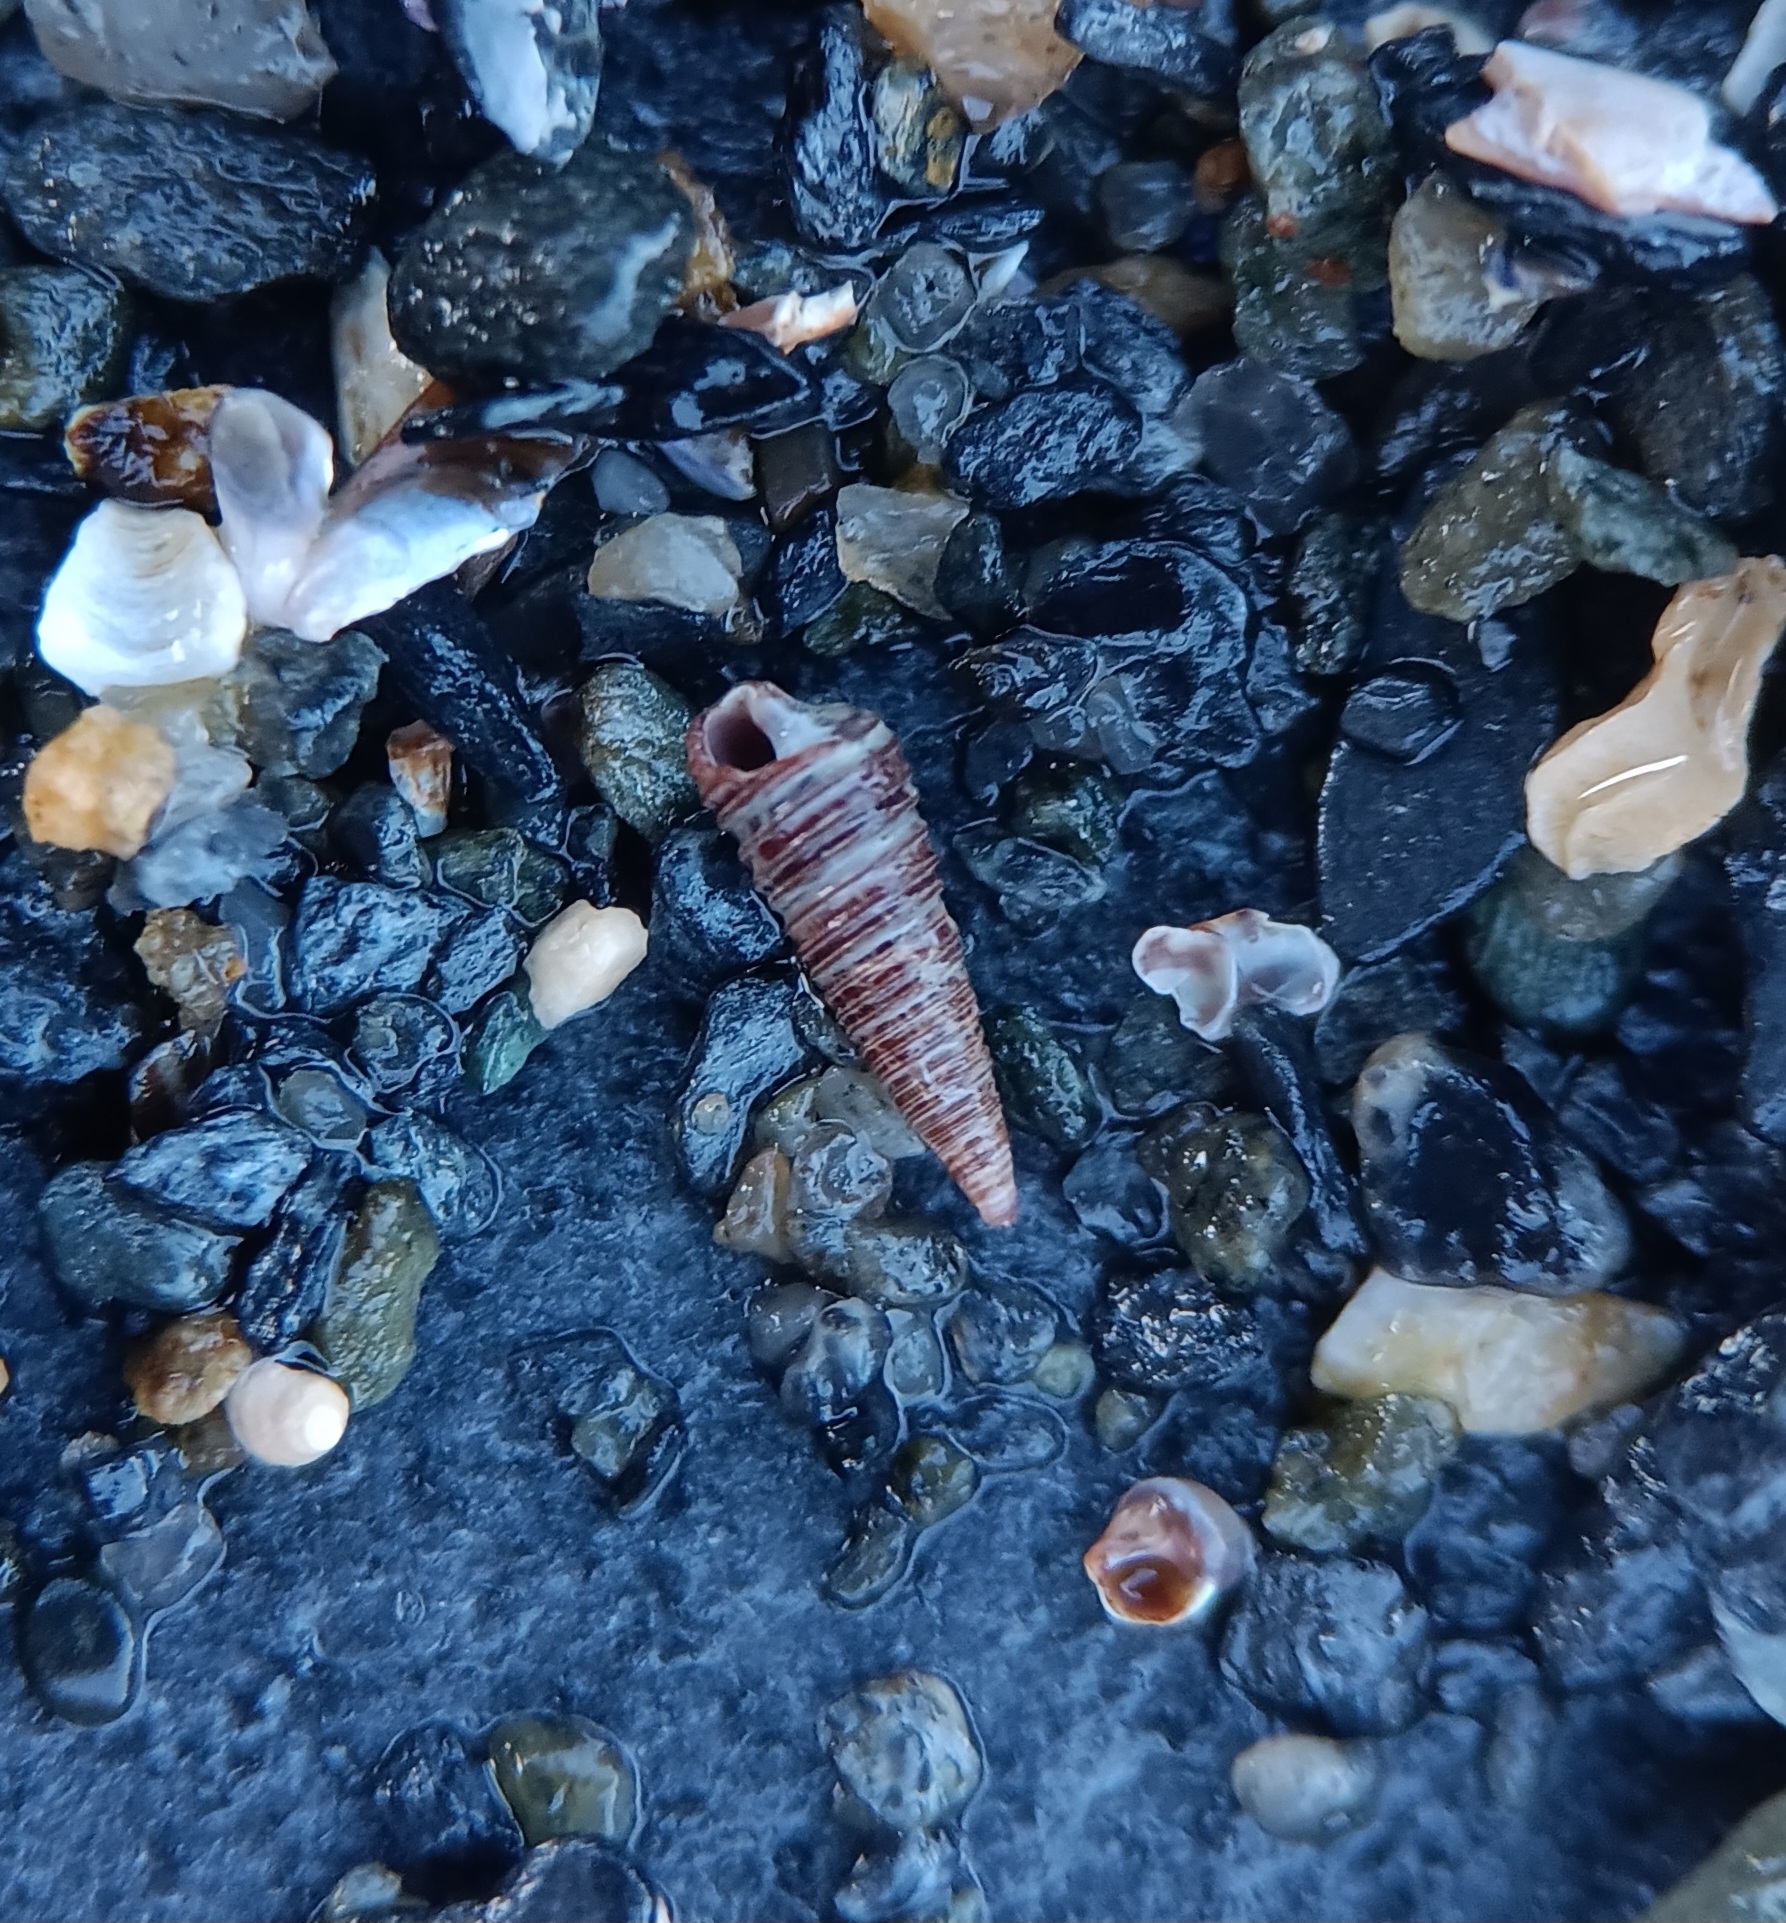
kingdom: Animalia
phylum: Mollusca
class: Gastropoda
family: Cerithiopsidae
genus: Seila
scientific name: Seila adamsii
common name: Adam's miniature cerith
